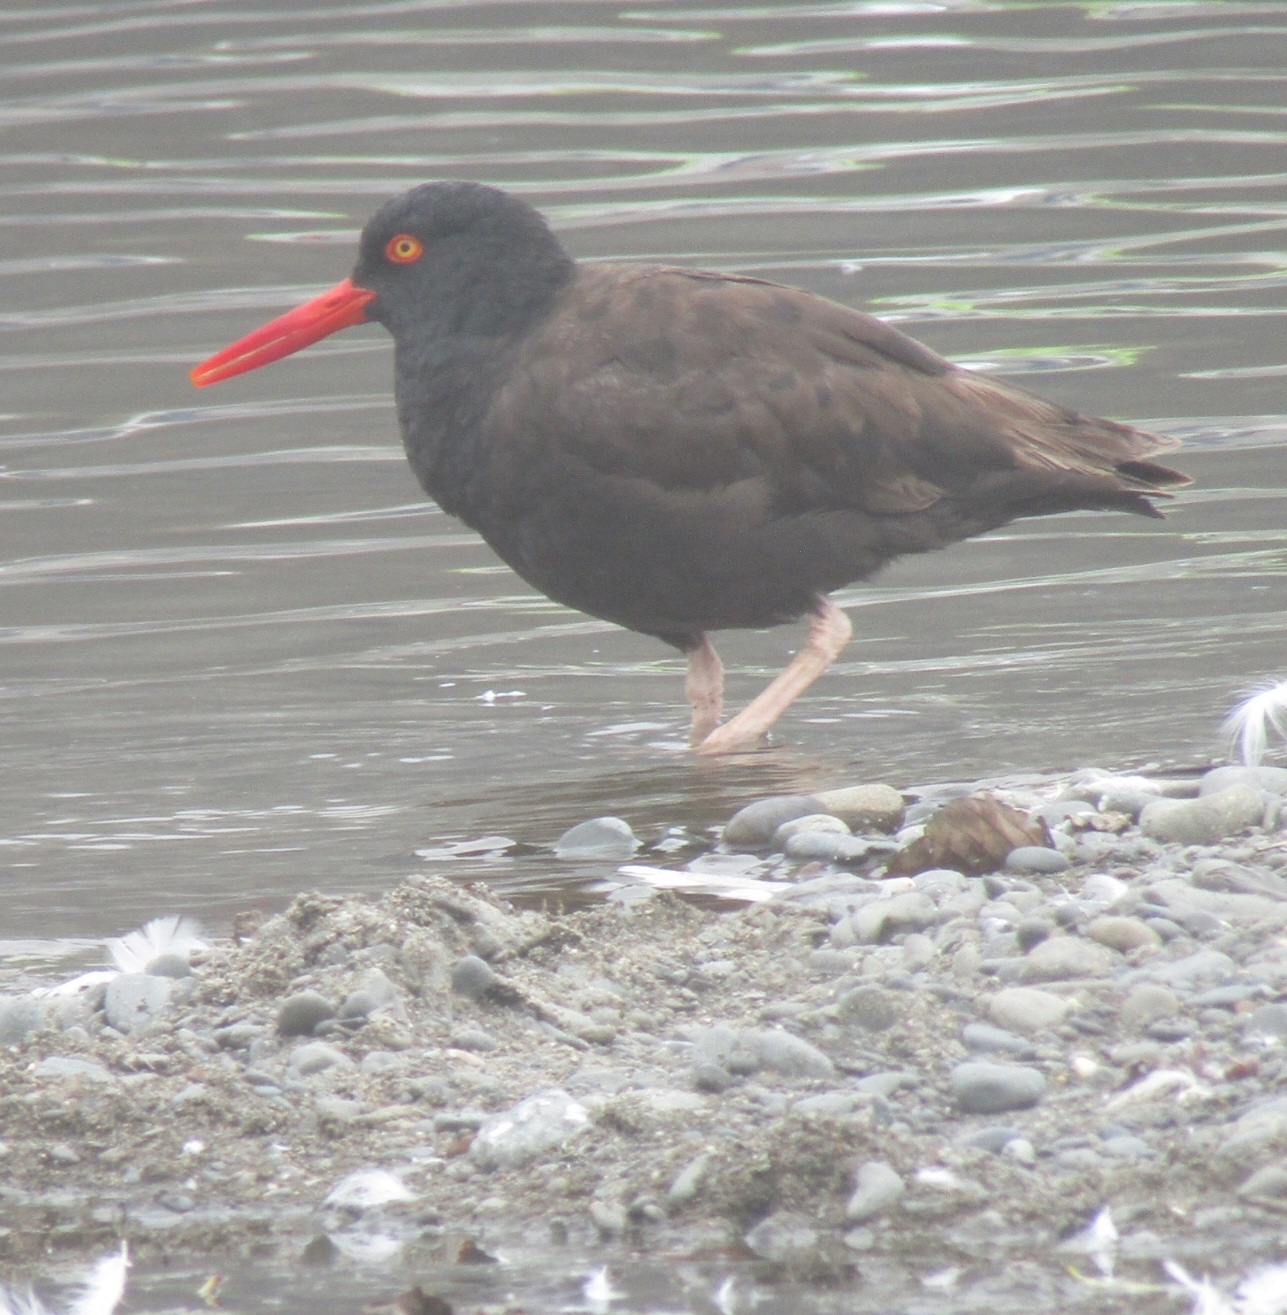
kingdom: Animalia
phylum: Chordata
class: Aves
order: Charadriiformes
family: Haematopodidae
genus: Haematopus
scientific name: Haematopus bachmani
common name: Black oystercatcher
